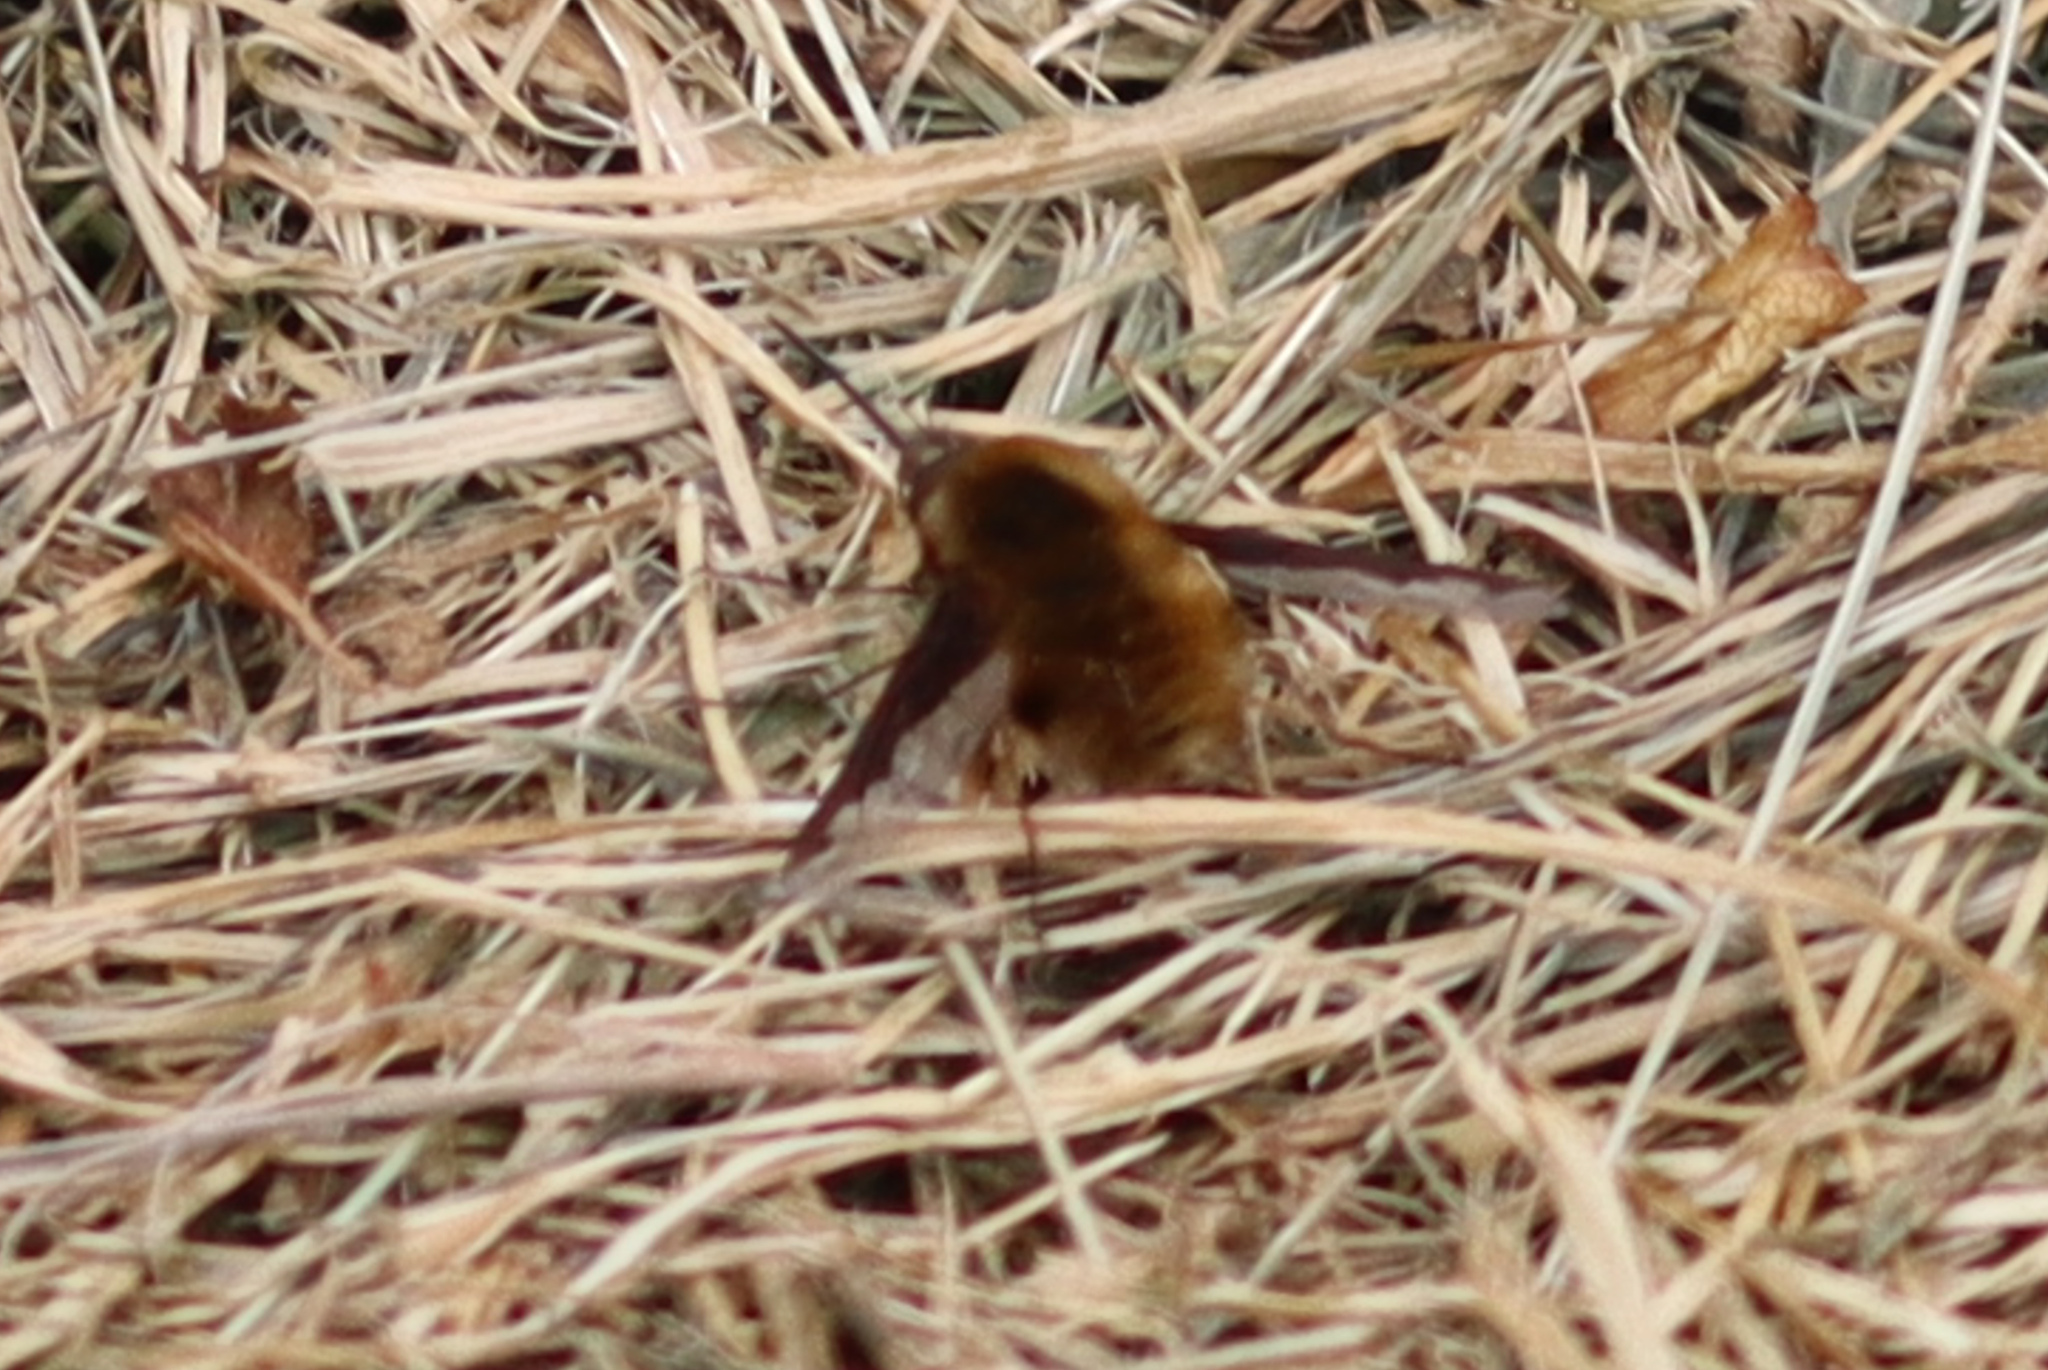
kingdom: Animalia
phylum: Arthropoda
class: Insecta
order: Diptera
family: Bombyliidae
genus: Bombylius
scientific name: Bombylius major
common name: Bee fly
